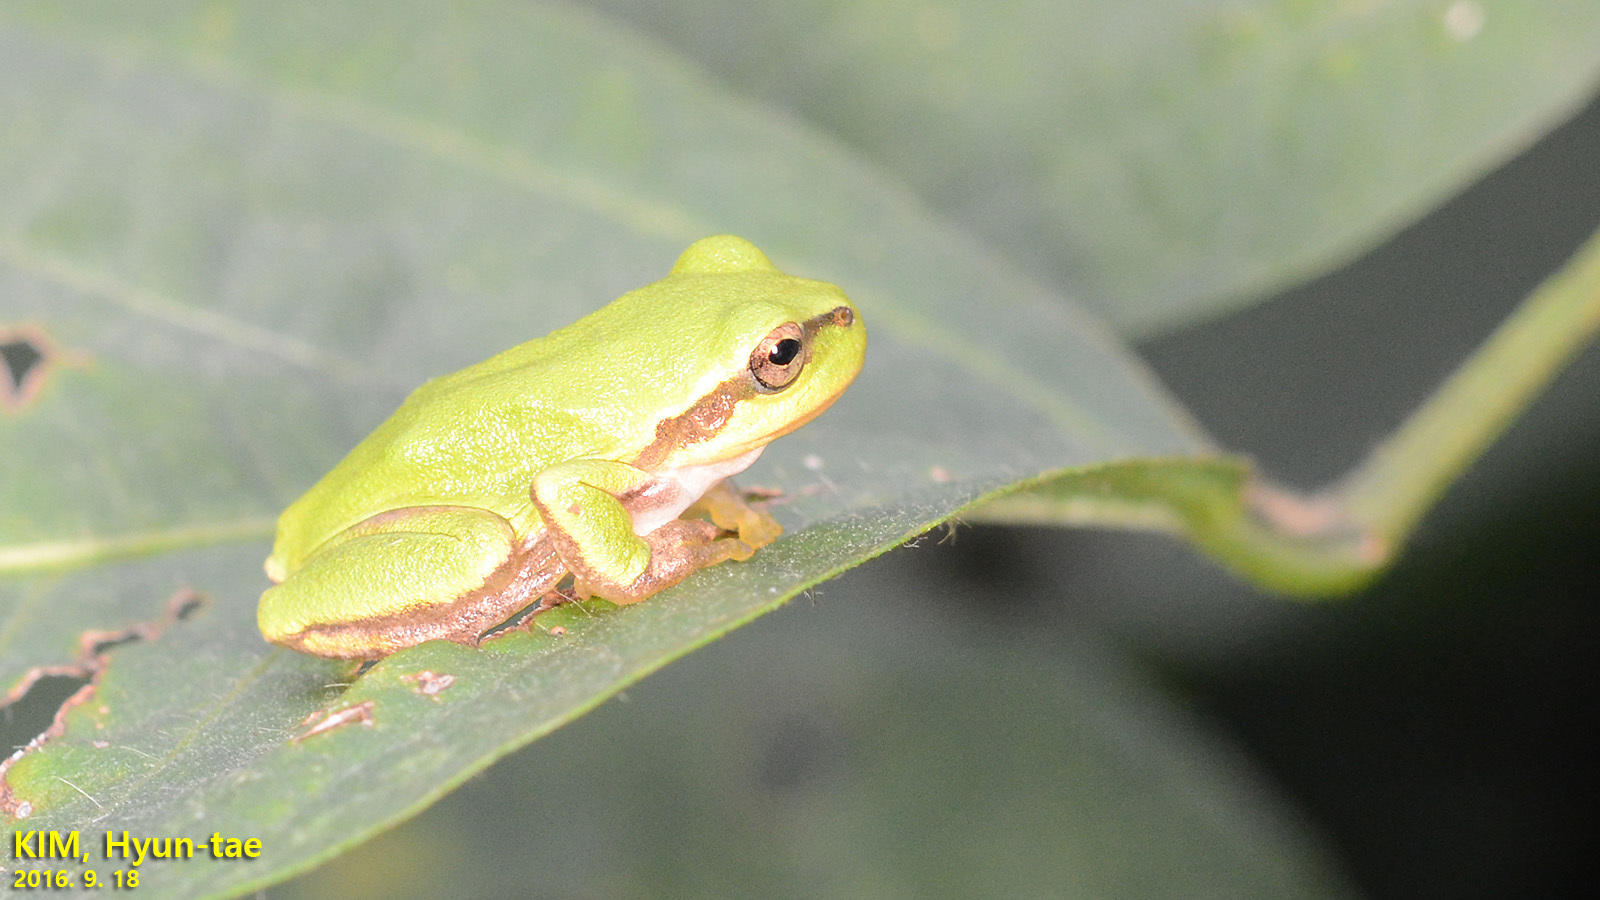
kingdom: Animalia
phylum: Chordata
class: Amphibia
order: Anura
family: Hylidae
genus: Dryophytes
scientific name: Dryophytes japonicus
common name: Japanese treefrog
